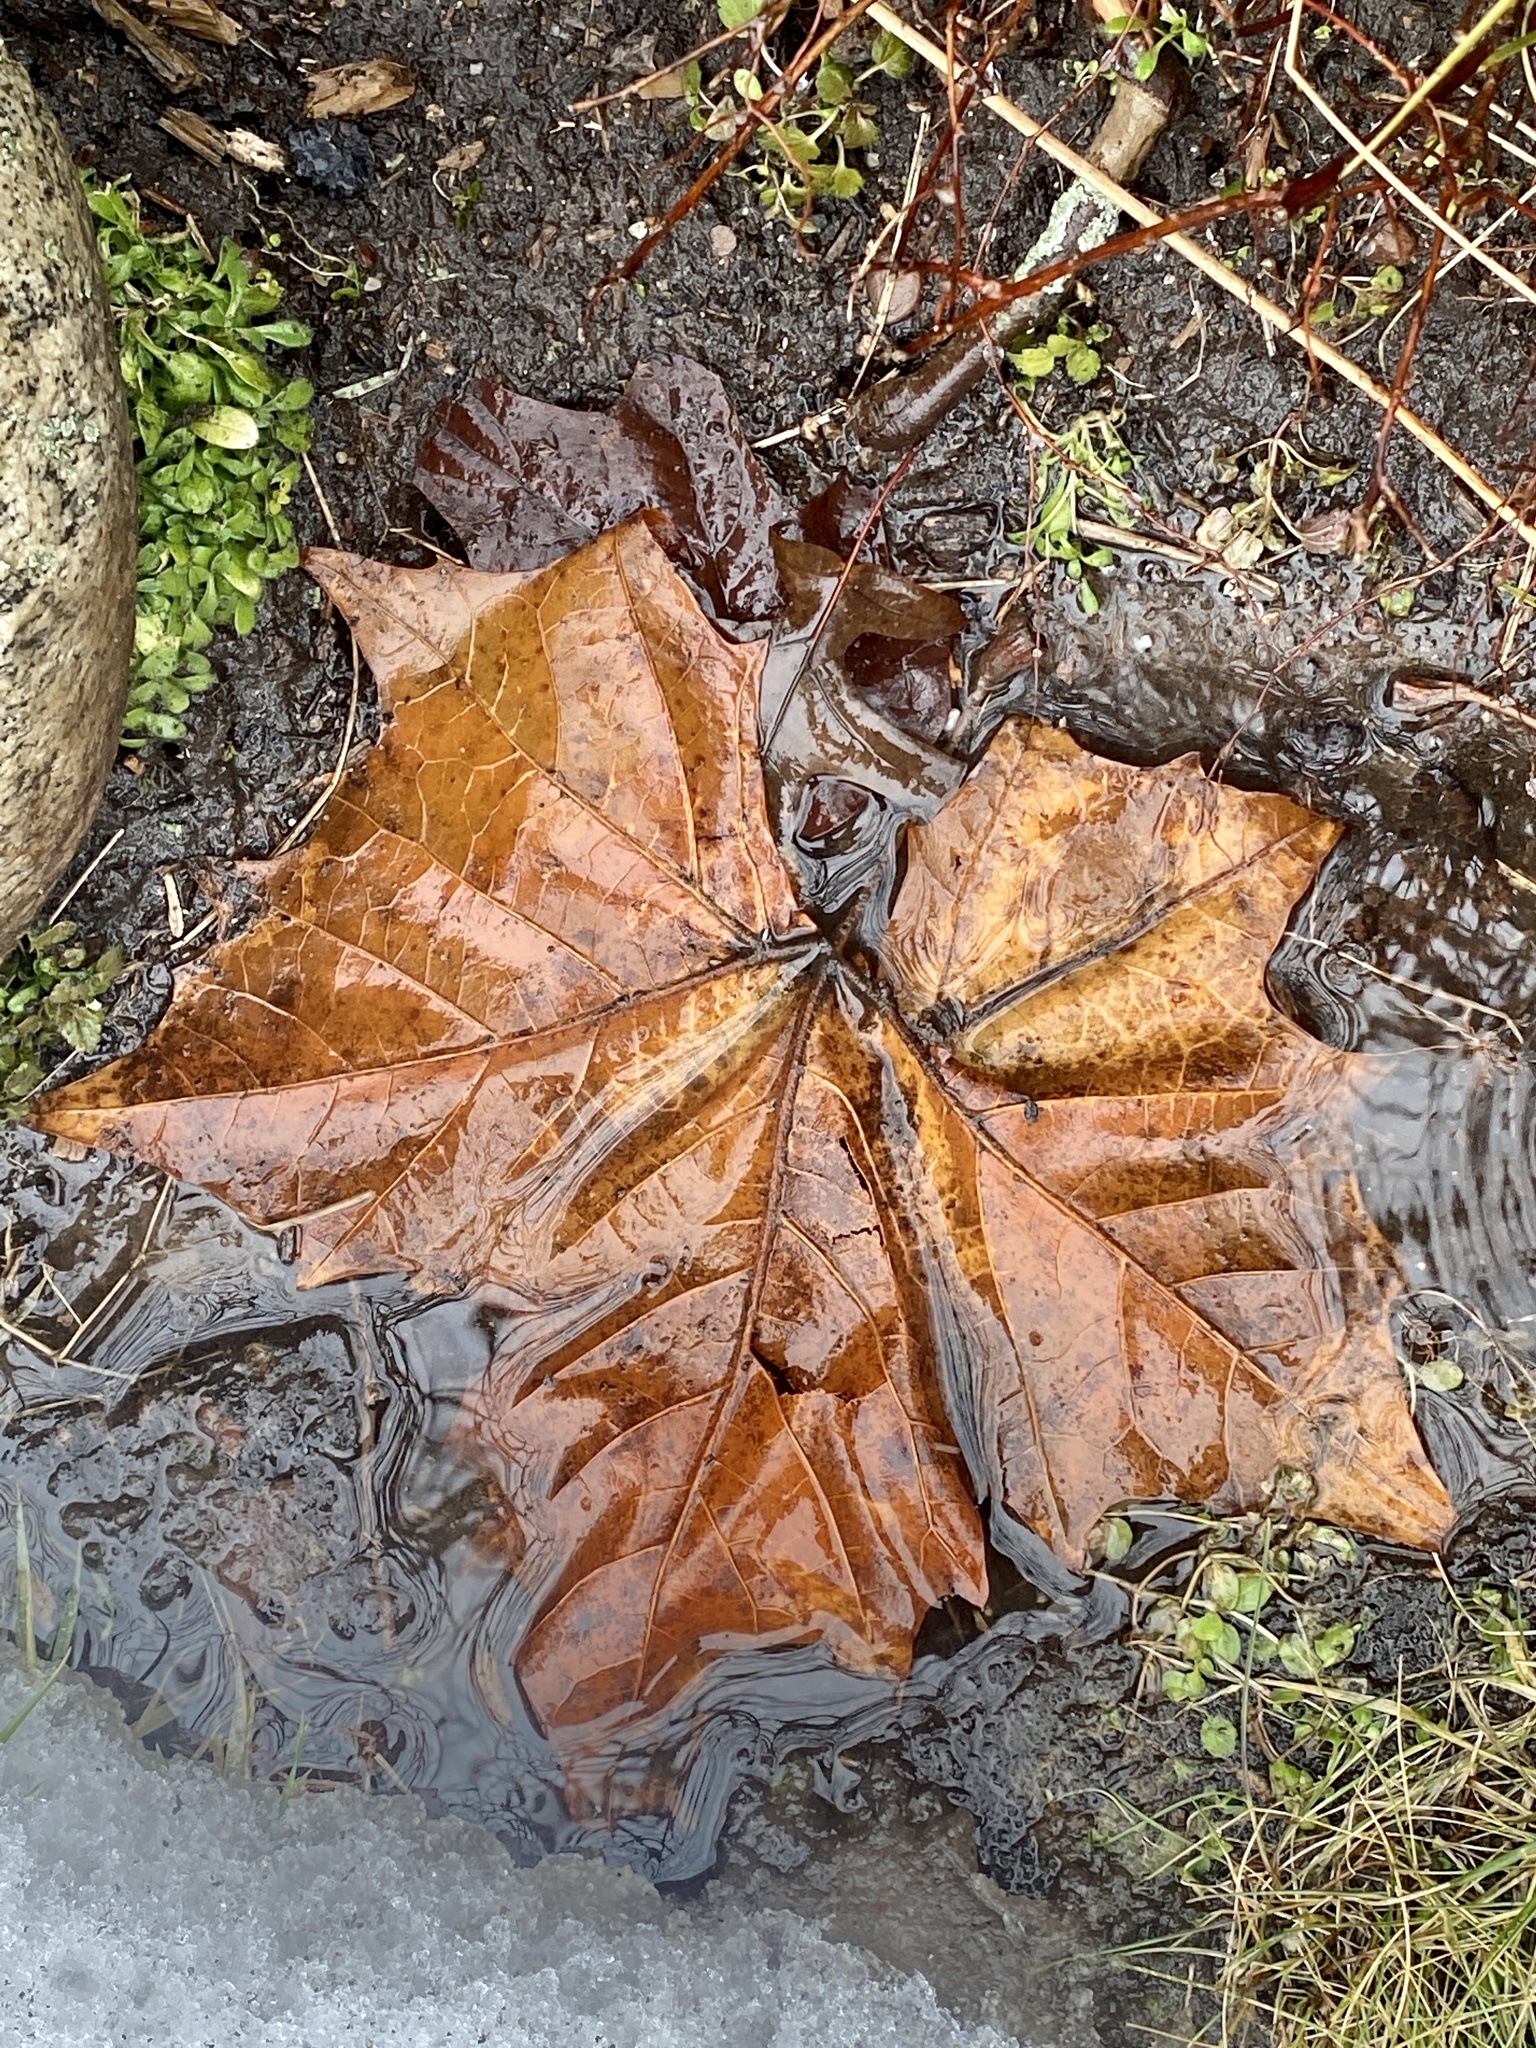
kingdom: Plantae
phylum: Tracheophyta
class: Magnoliopsida
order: Proteales
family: Platanaceae
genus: Platanus
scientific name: Platanus occidentalis
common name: American sycamore
